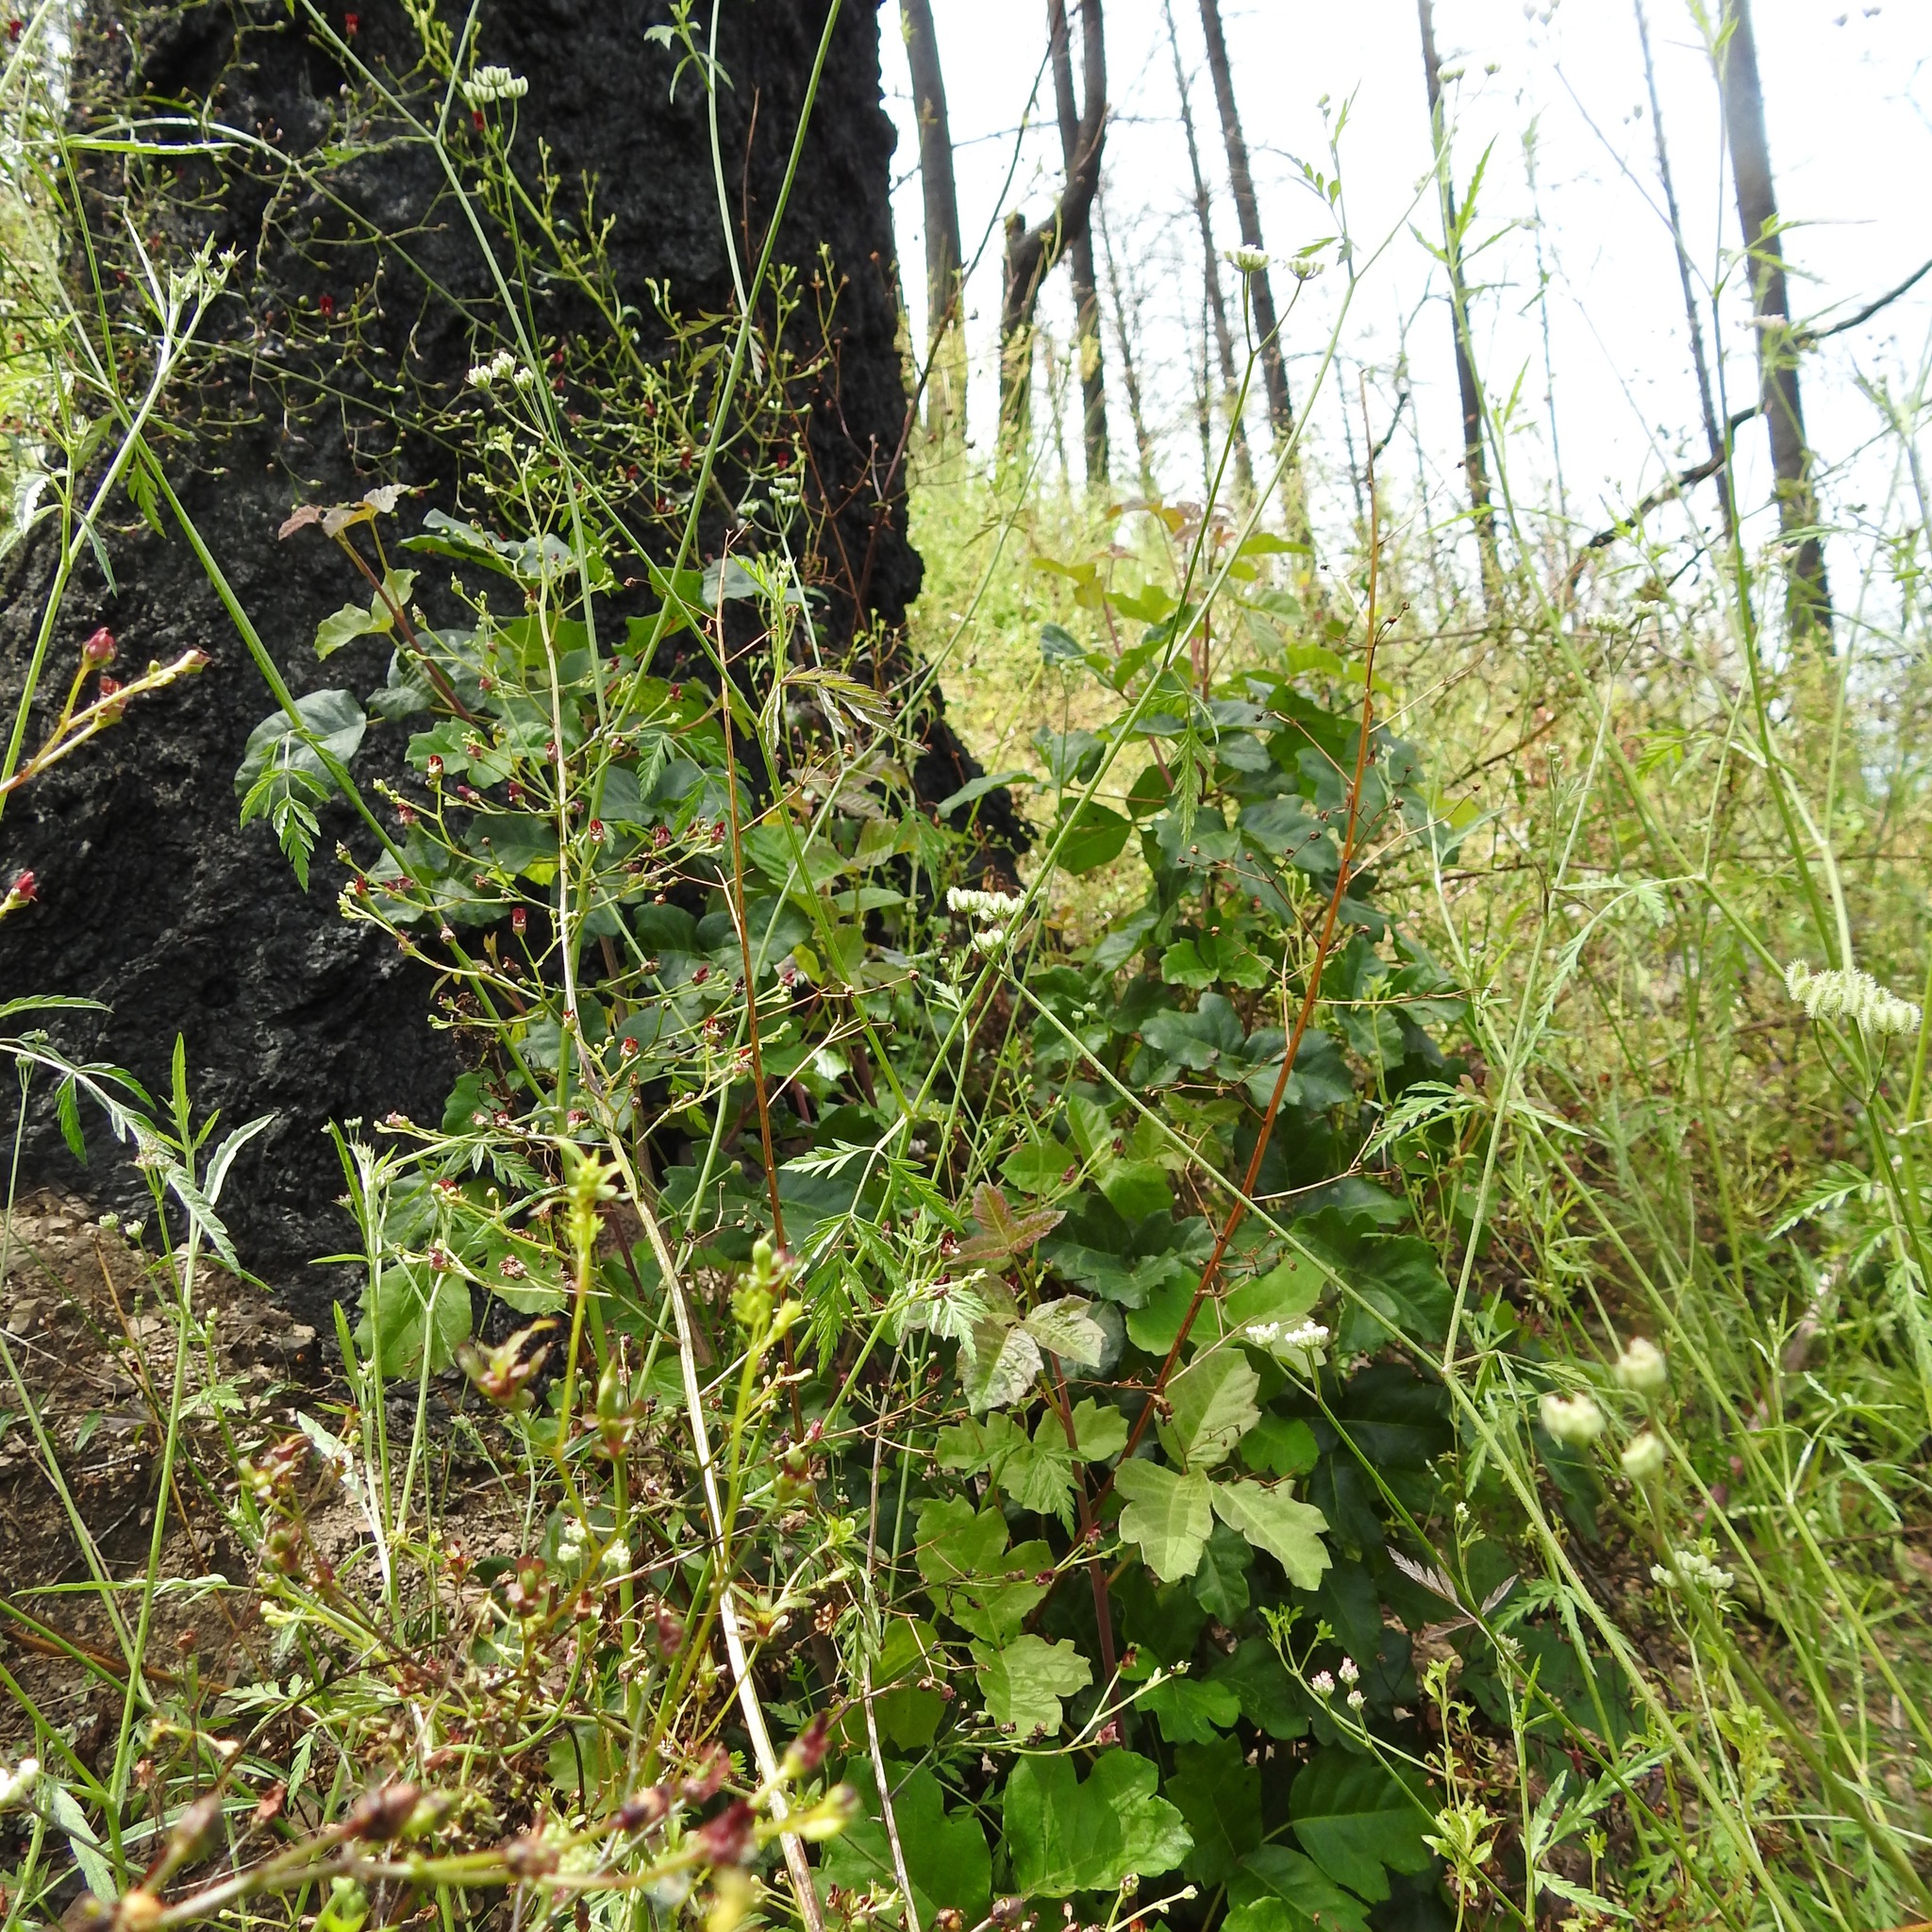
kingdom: Plantae
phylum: Tracheophyta
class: Magnoliopsida
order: Sapindales
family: Anacardiaceae
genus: Toxicodendron
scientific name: Toxicodendron diversilobum
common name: Pacific poison-oak
